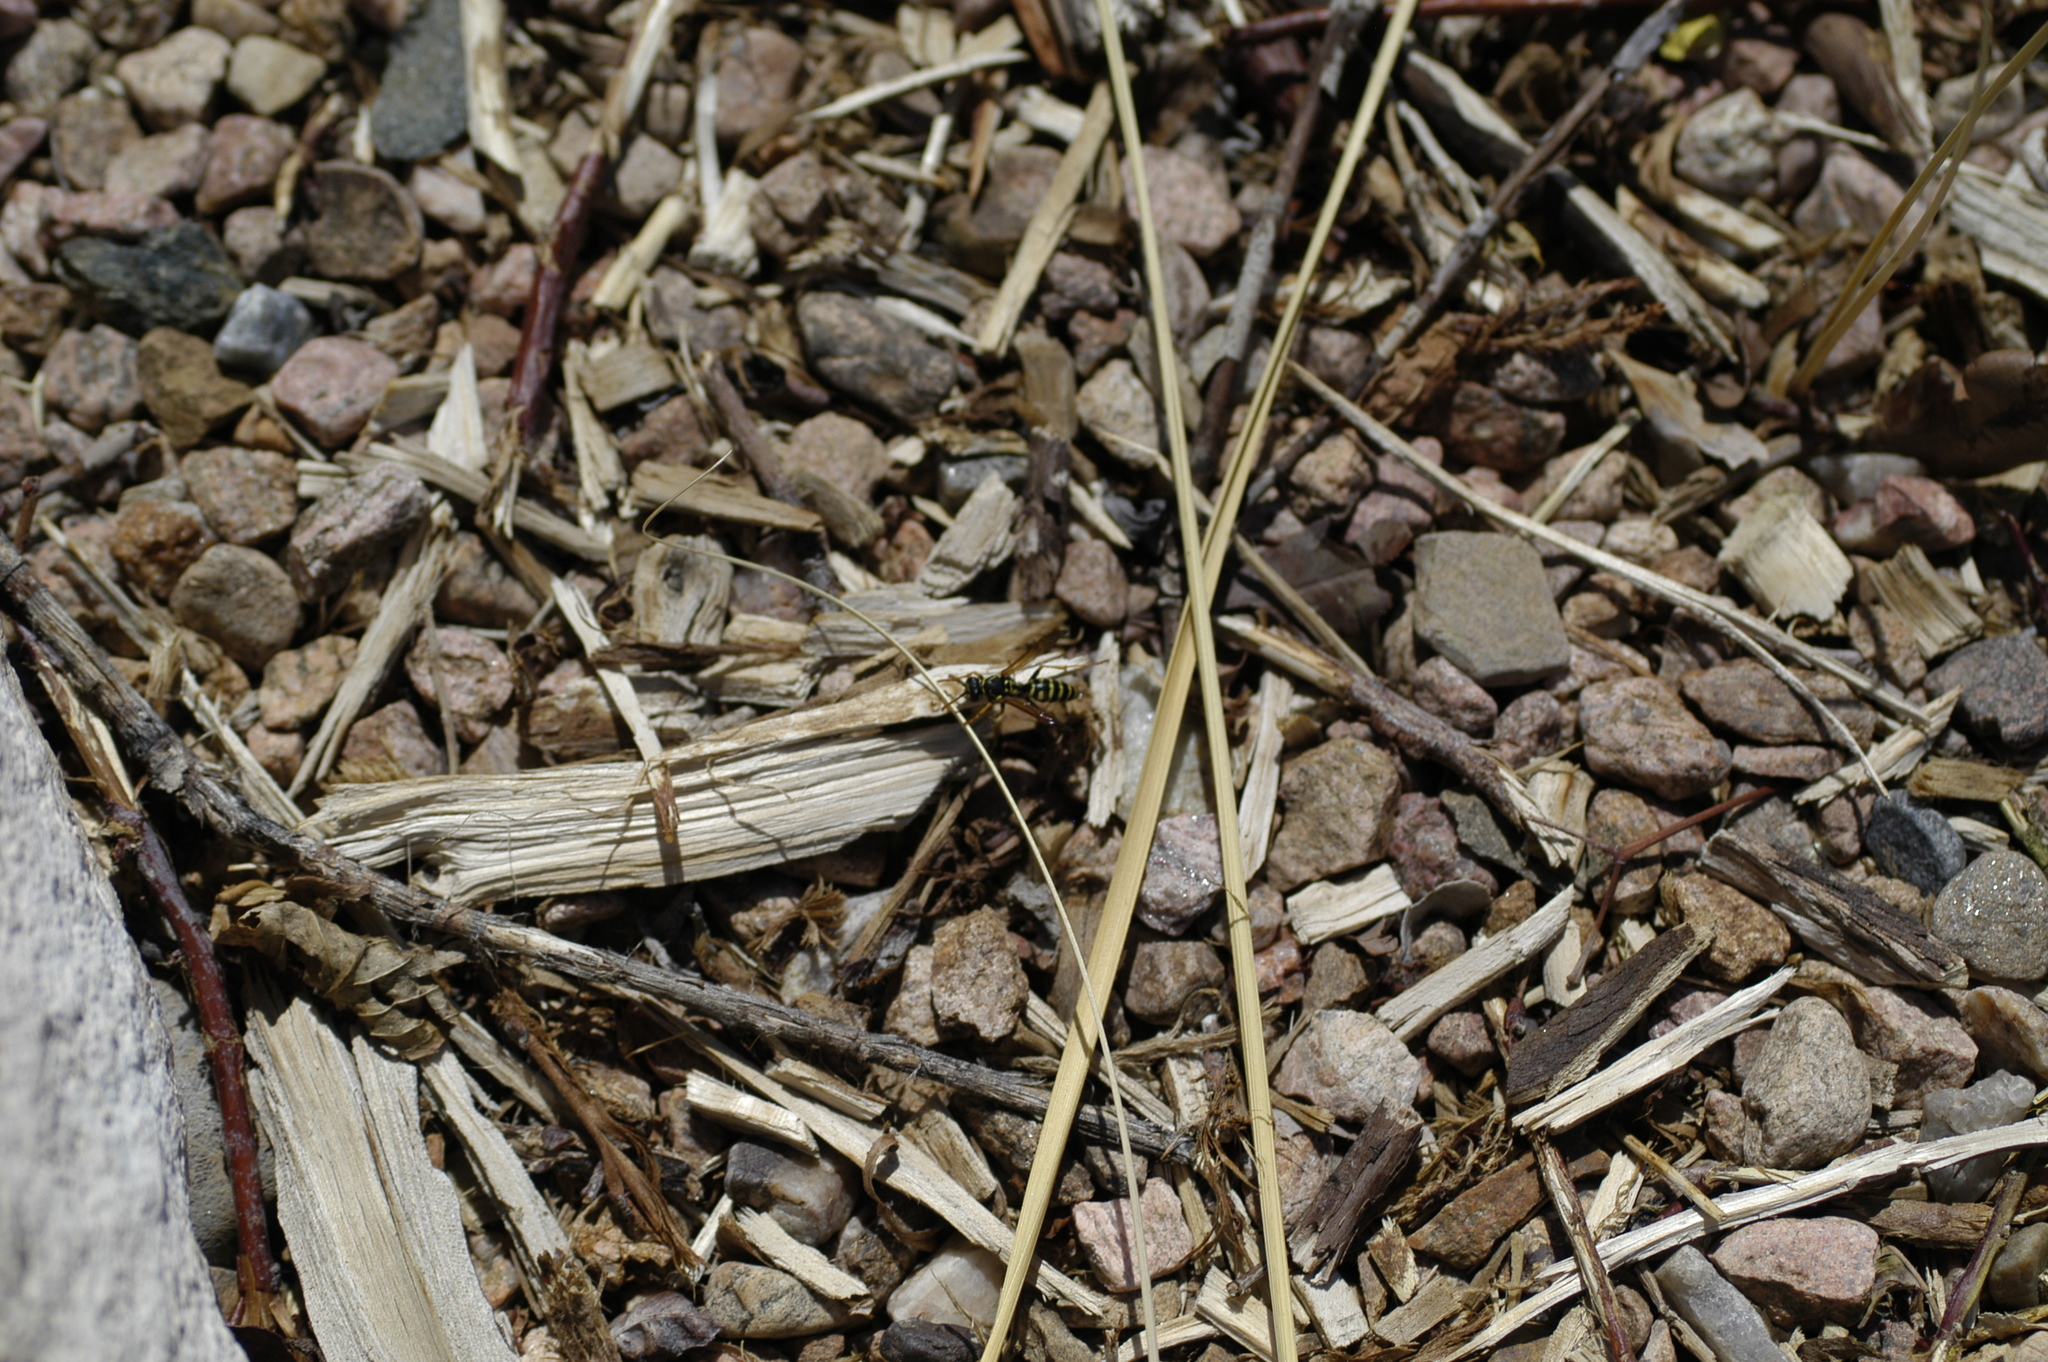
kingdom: Animalia
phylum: Arthropoda
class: Insecta
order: Hymenoptera
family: Eumenidae
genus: Polistes
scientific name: Polistes dominula
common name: Paper wasp
